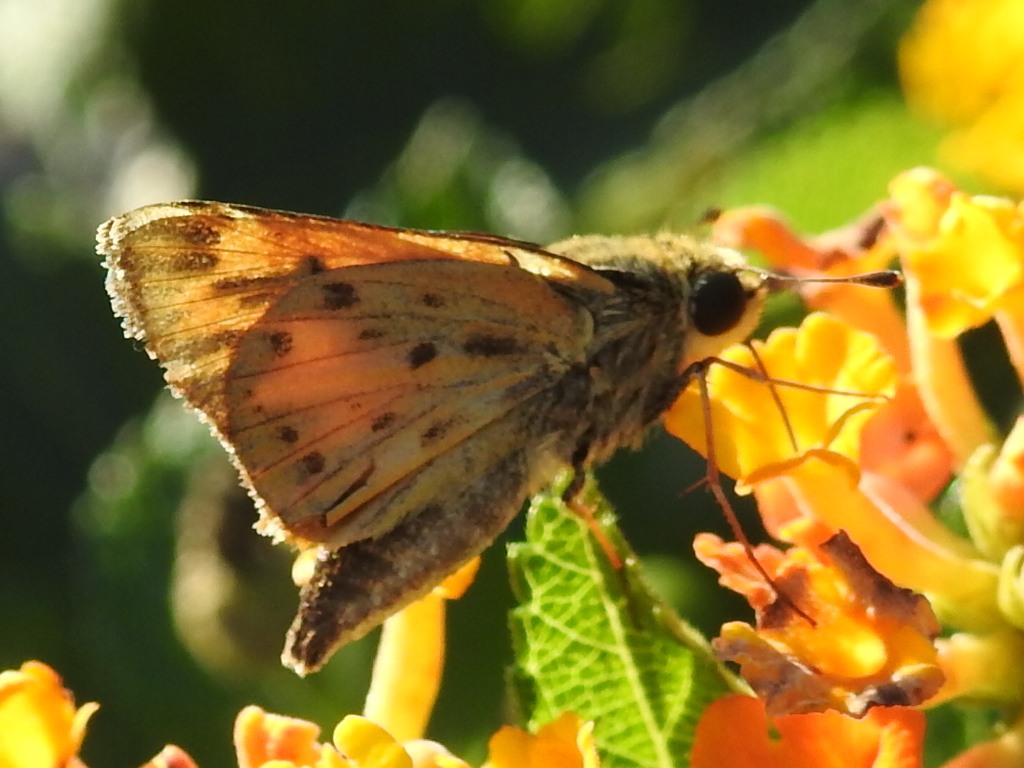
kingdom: Animalia
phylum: Arthropoda
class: Insecta
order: Lepidoptera
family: Hesperiidae
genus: Hylephila
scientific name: Hylephila phyleus
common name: Fiery skipper
